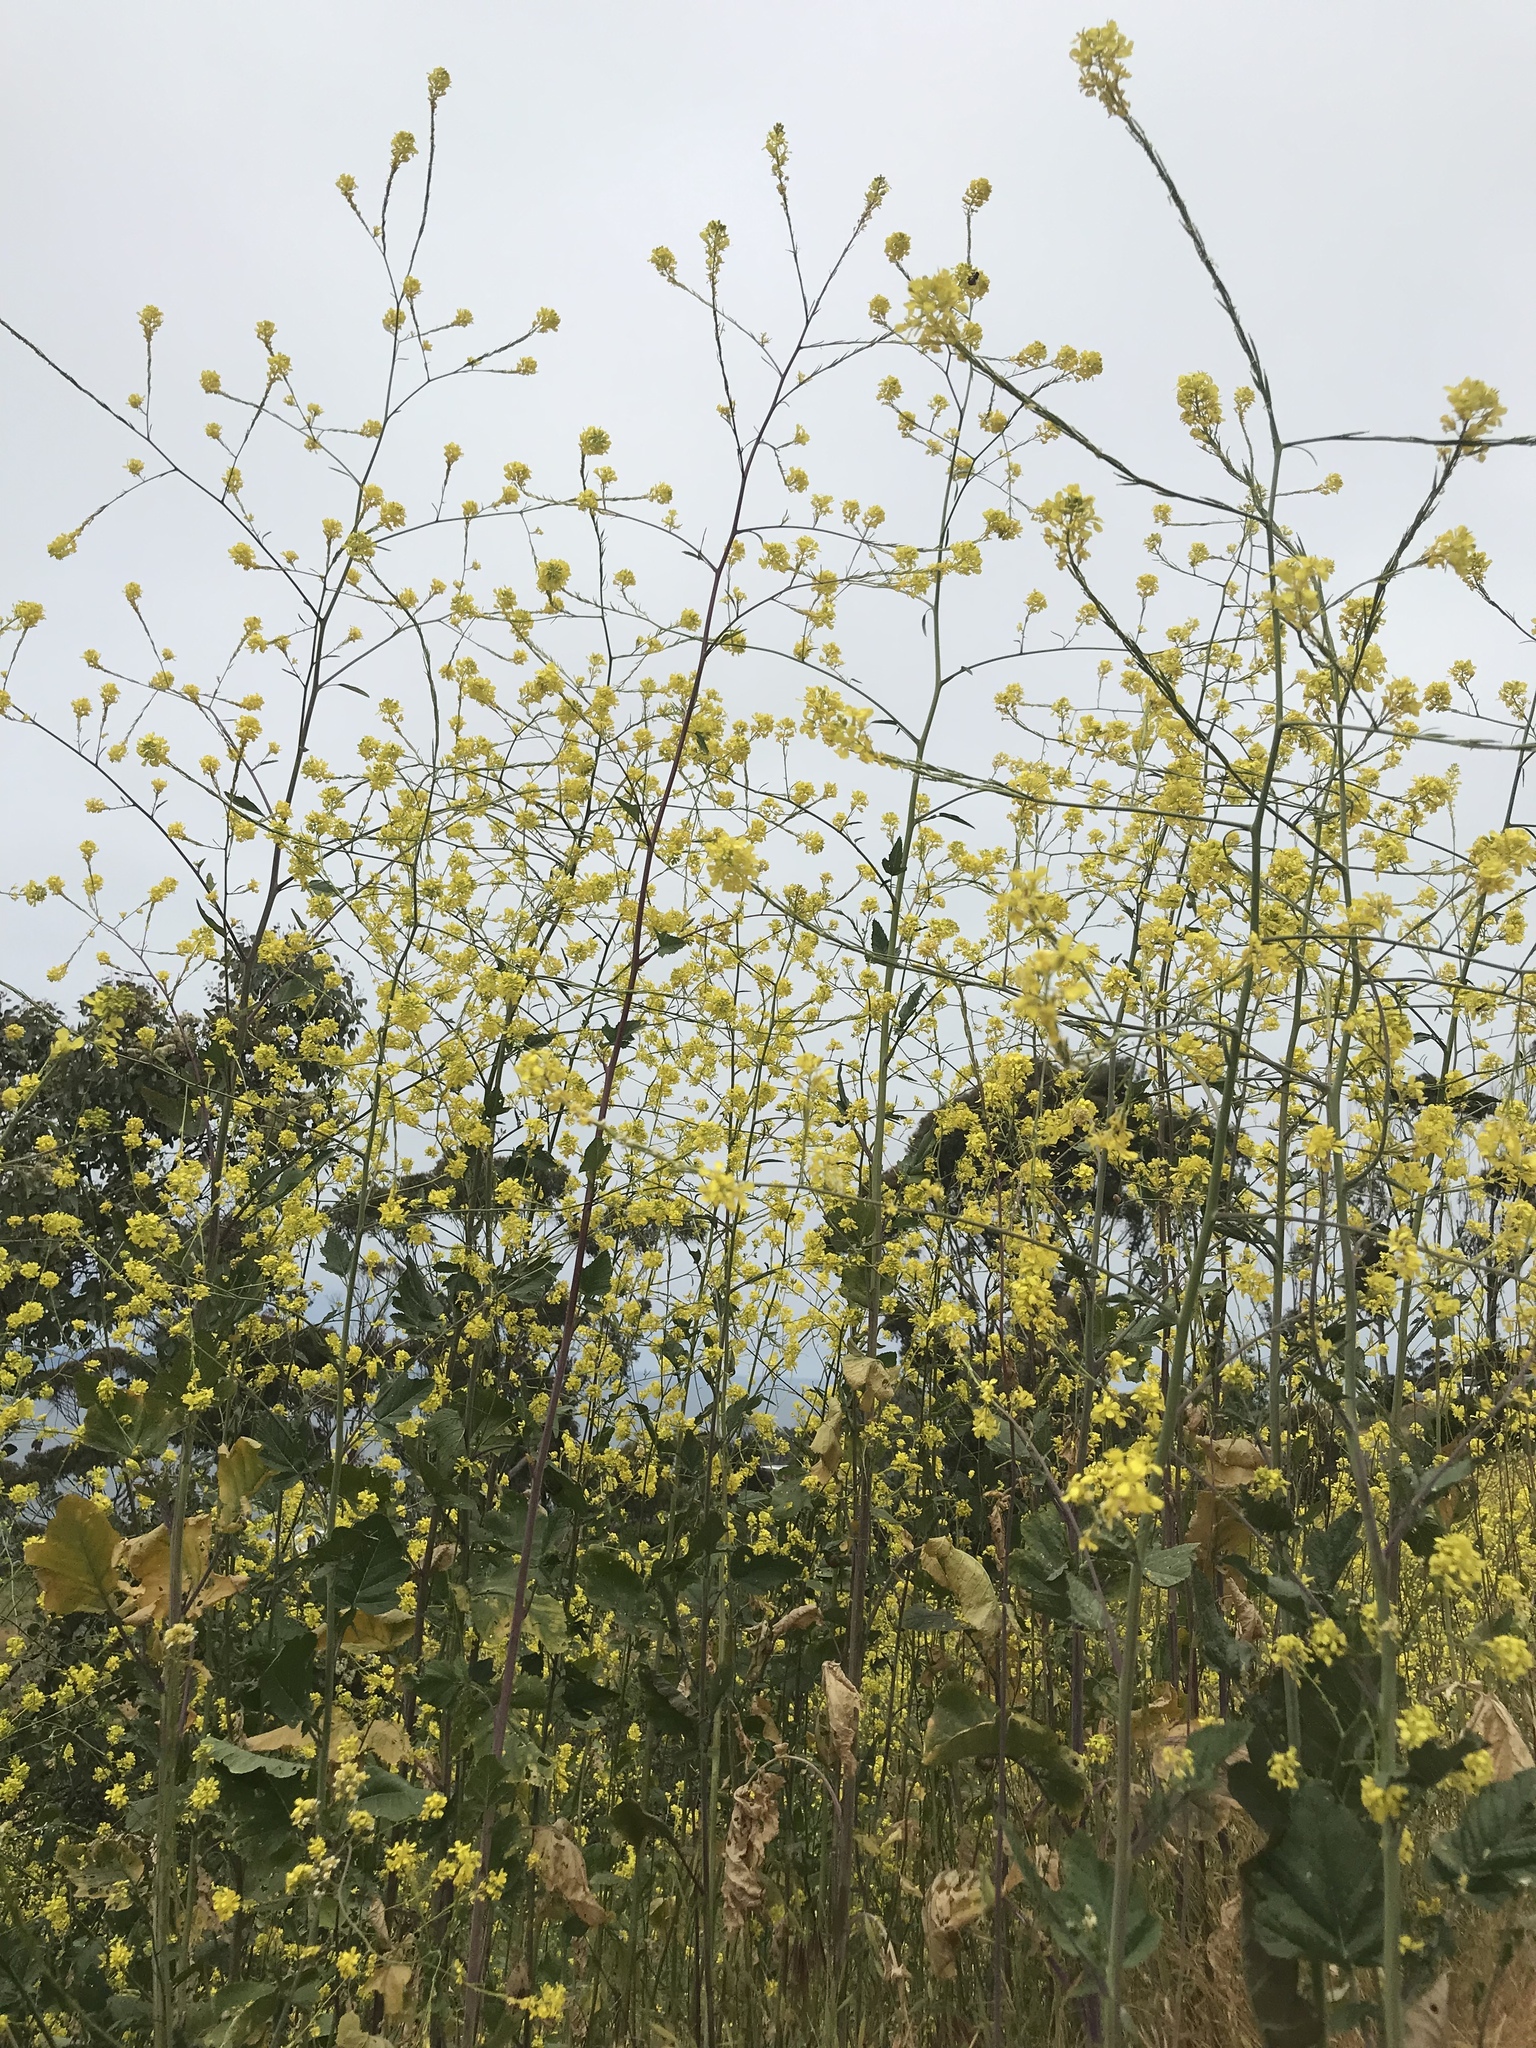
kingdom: Plantae
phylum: Tracheophyta
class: Magnoliopsida
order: Brassicales
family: Brassicaceae
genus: Brassica
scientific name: Brassica nigra
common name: Black mustard
